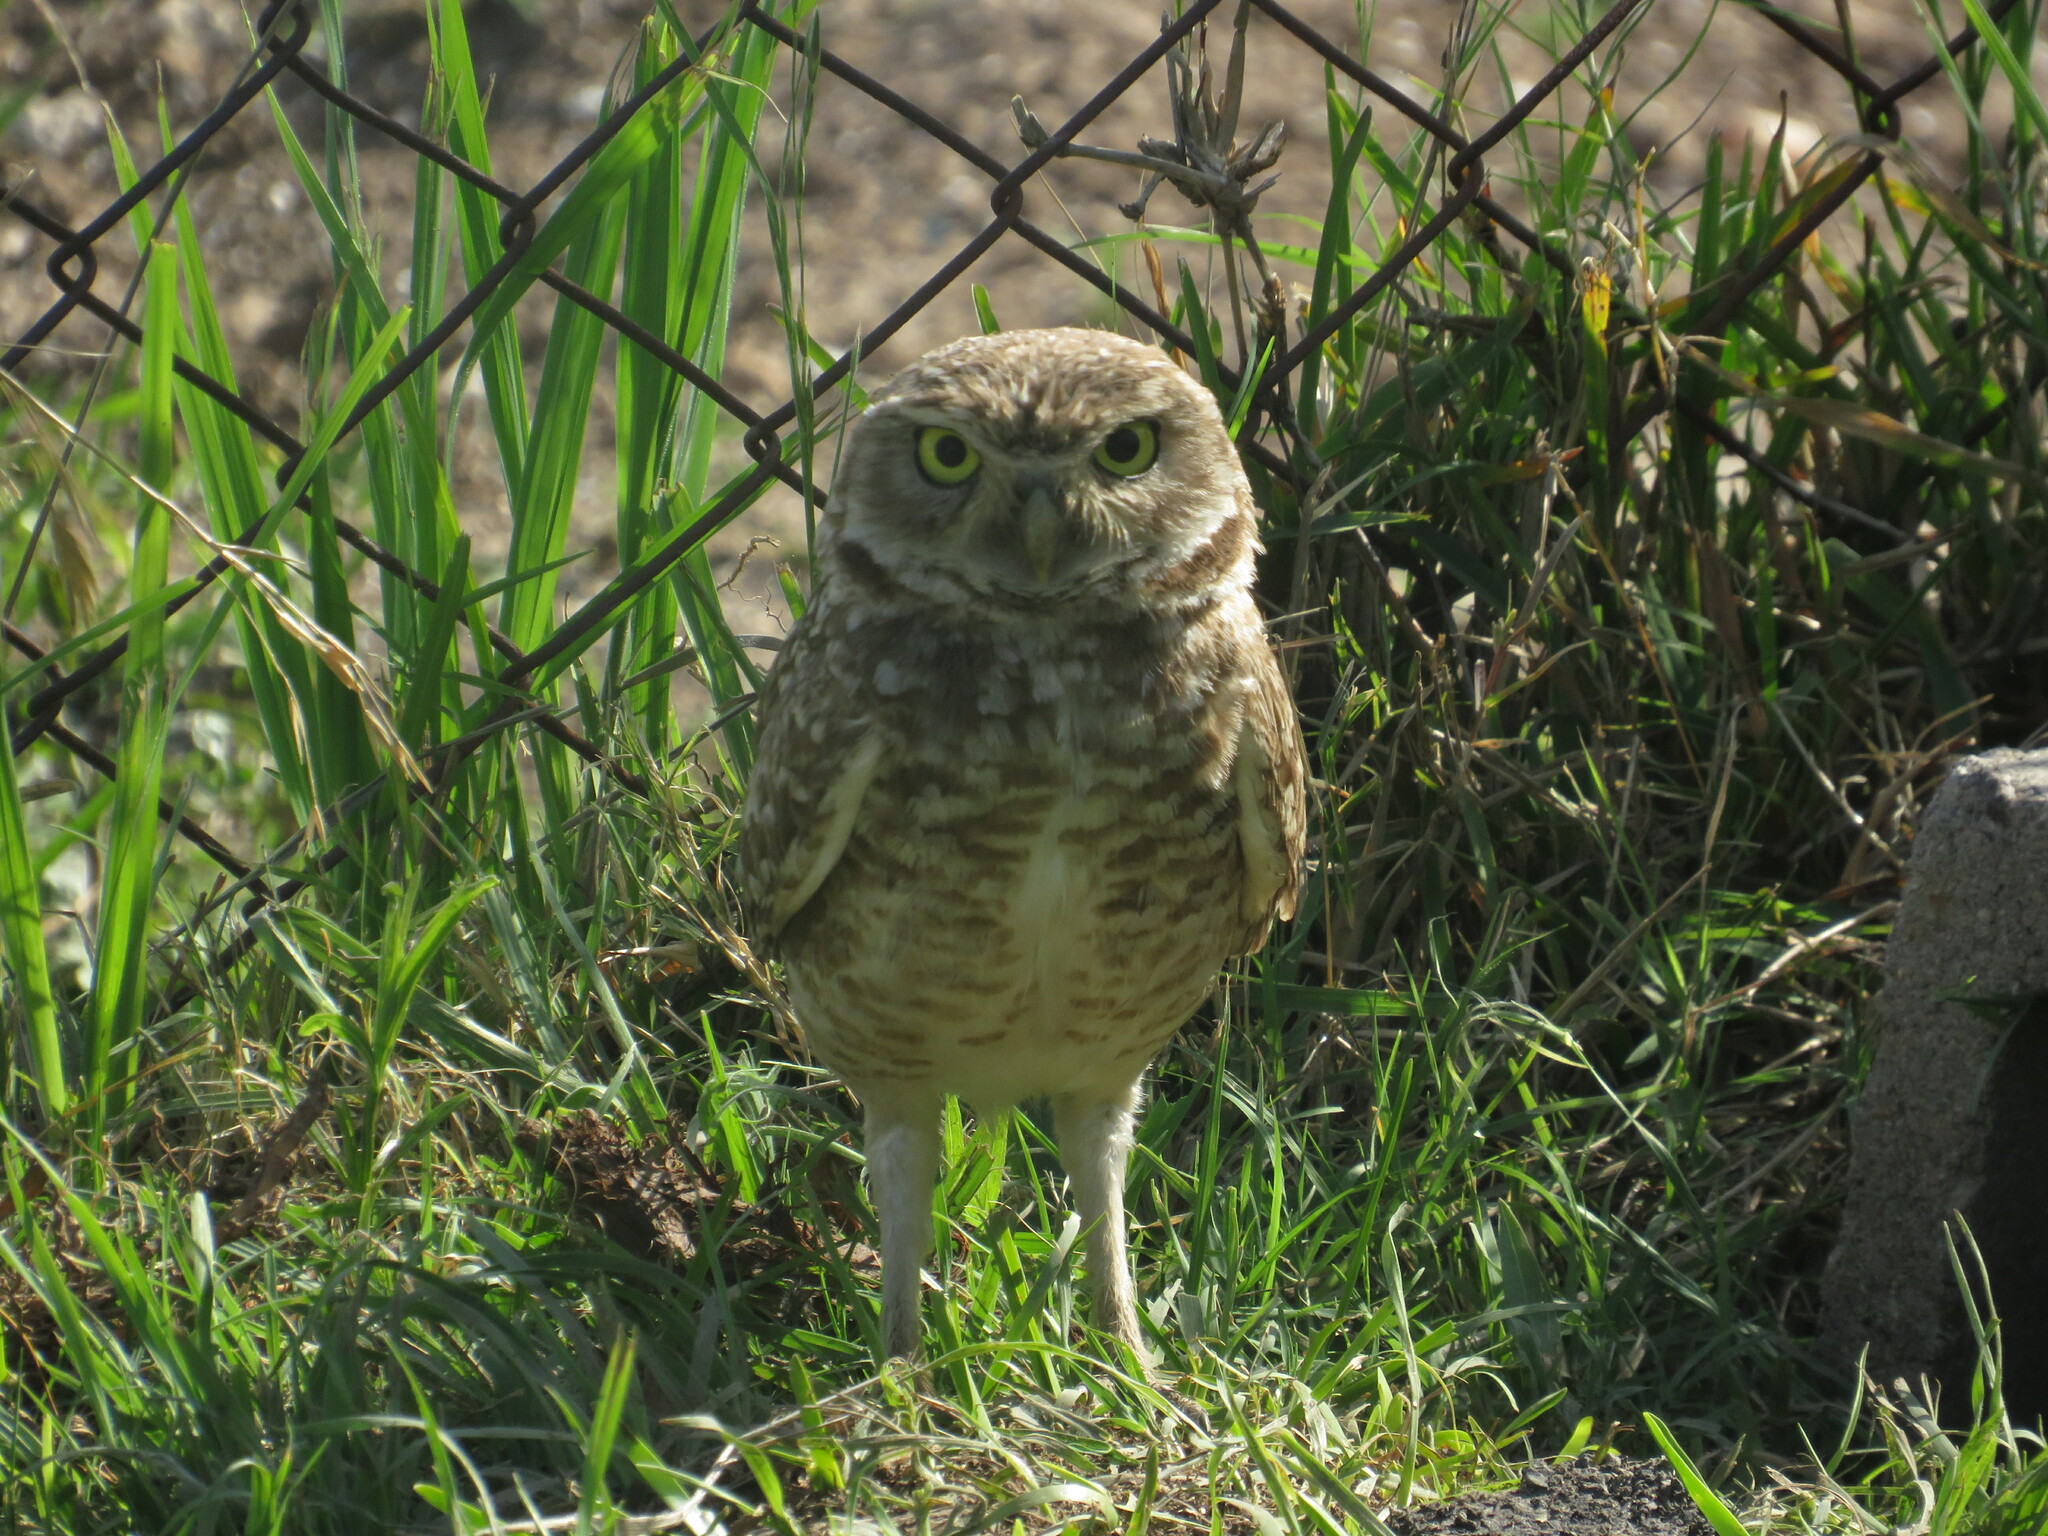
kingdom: Animalia
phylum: Chordata
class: Aves
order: Strigiformes
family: Strigidae
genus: Athene
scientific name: Athene cunicularia
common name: Burrowing owl
